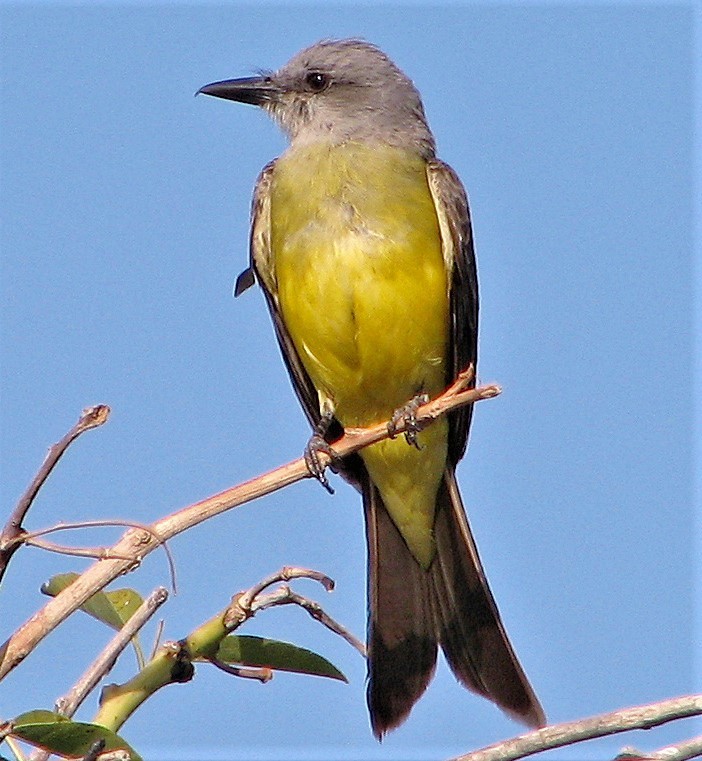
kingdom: Animalia
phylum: Chordata
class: Aves
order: Passeriformes
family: Tyrannidae
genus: Tyrannus
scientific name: Tyrannus melancholicus
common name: Tropical kingbird
